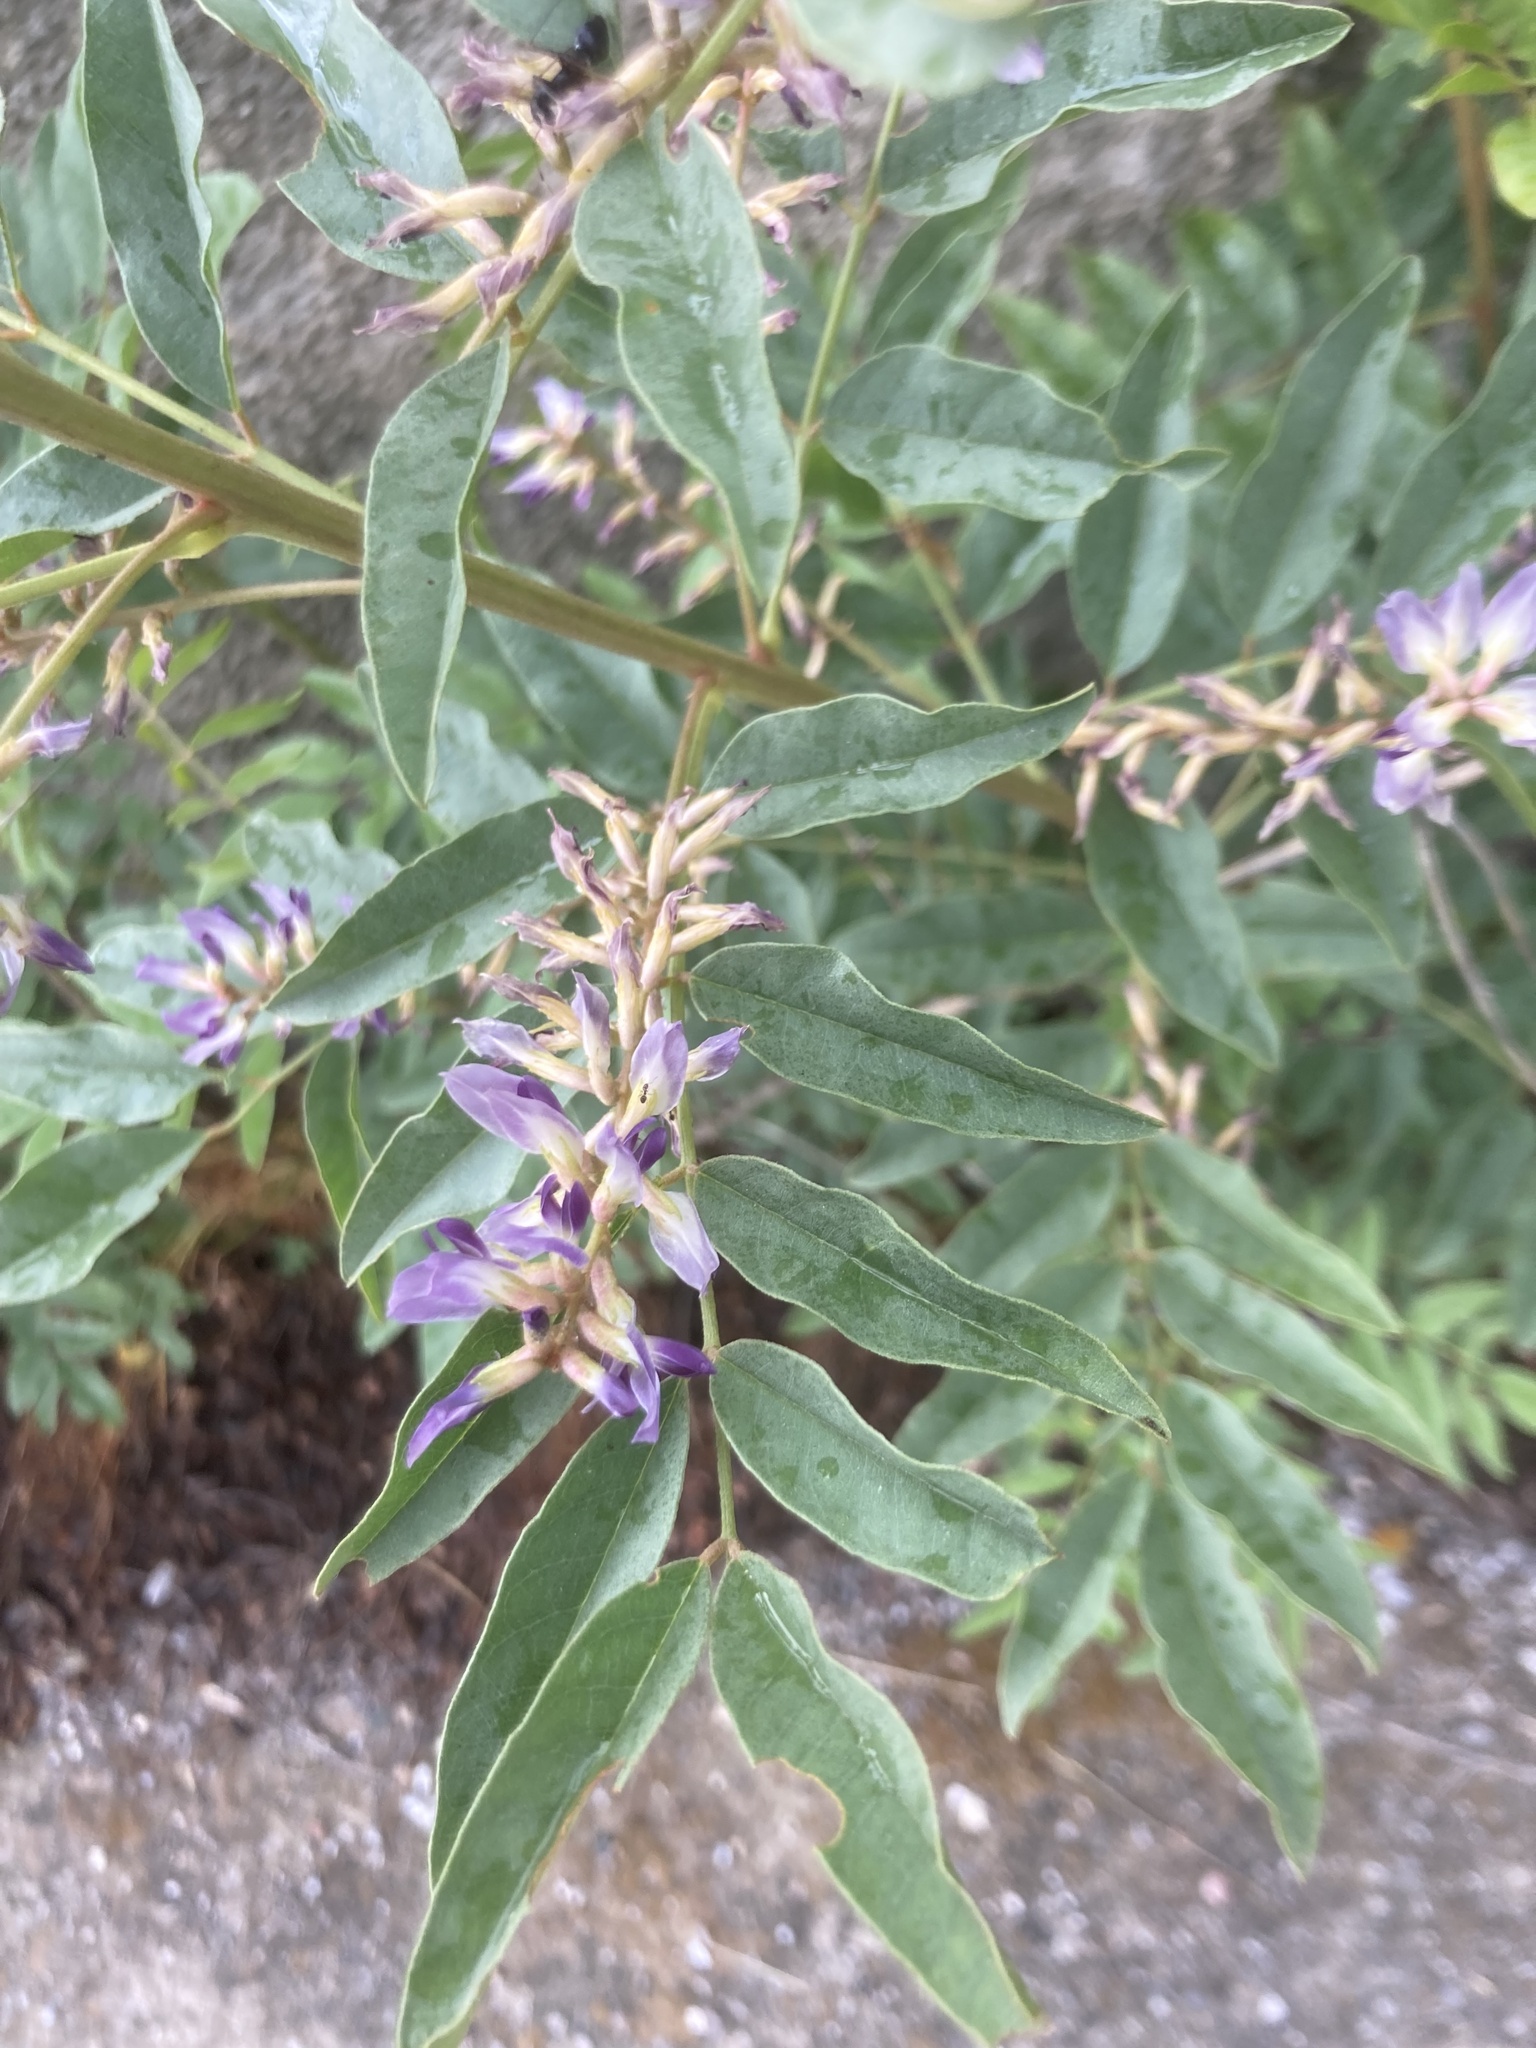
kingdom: Plantae
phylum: Tracheophyta
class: Magnoliopsida
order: Fabales
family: Fabaceae
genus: Glycyrrhiza
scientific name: Glycyrrhiza glabra
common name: Liquorice
